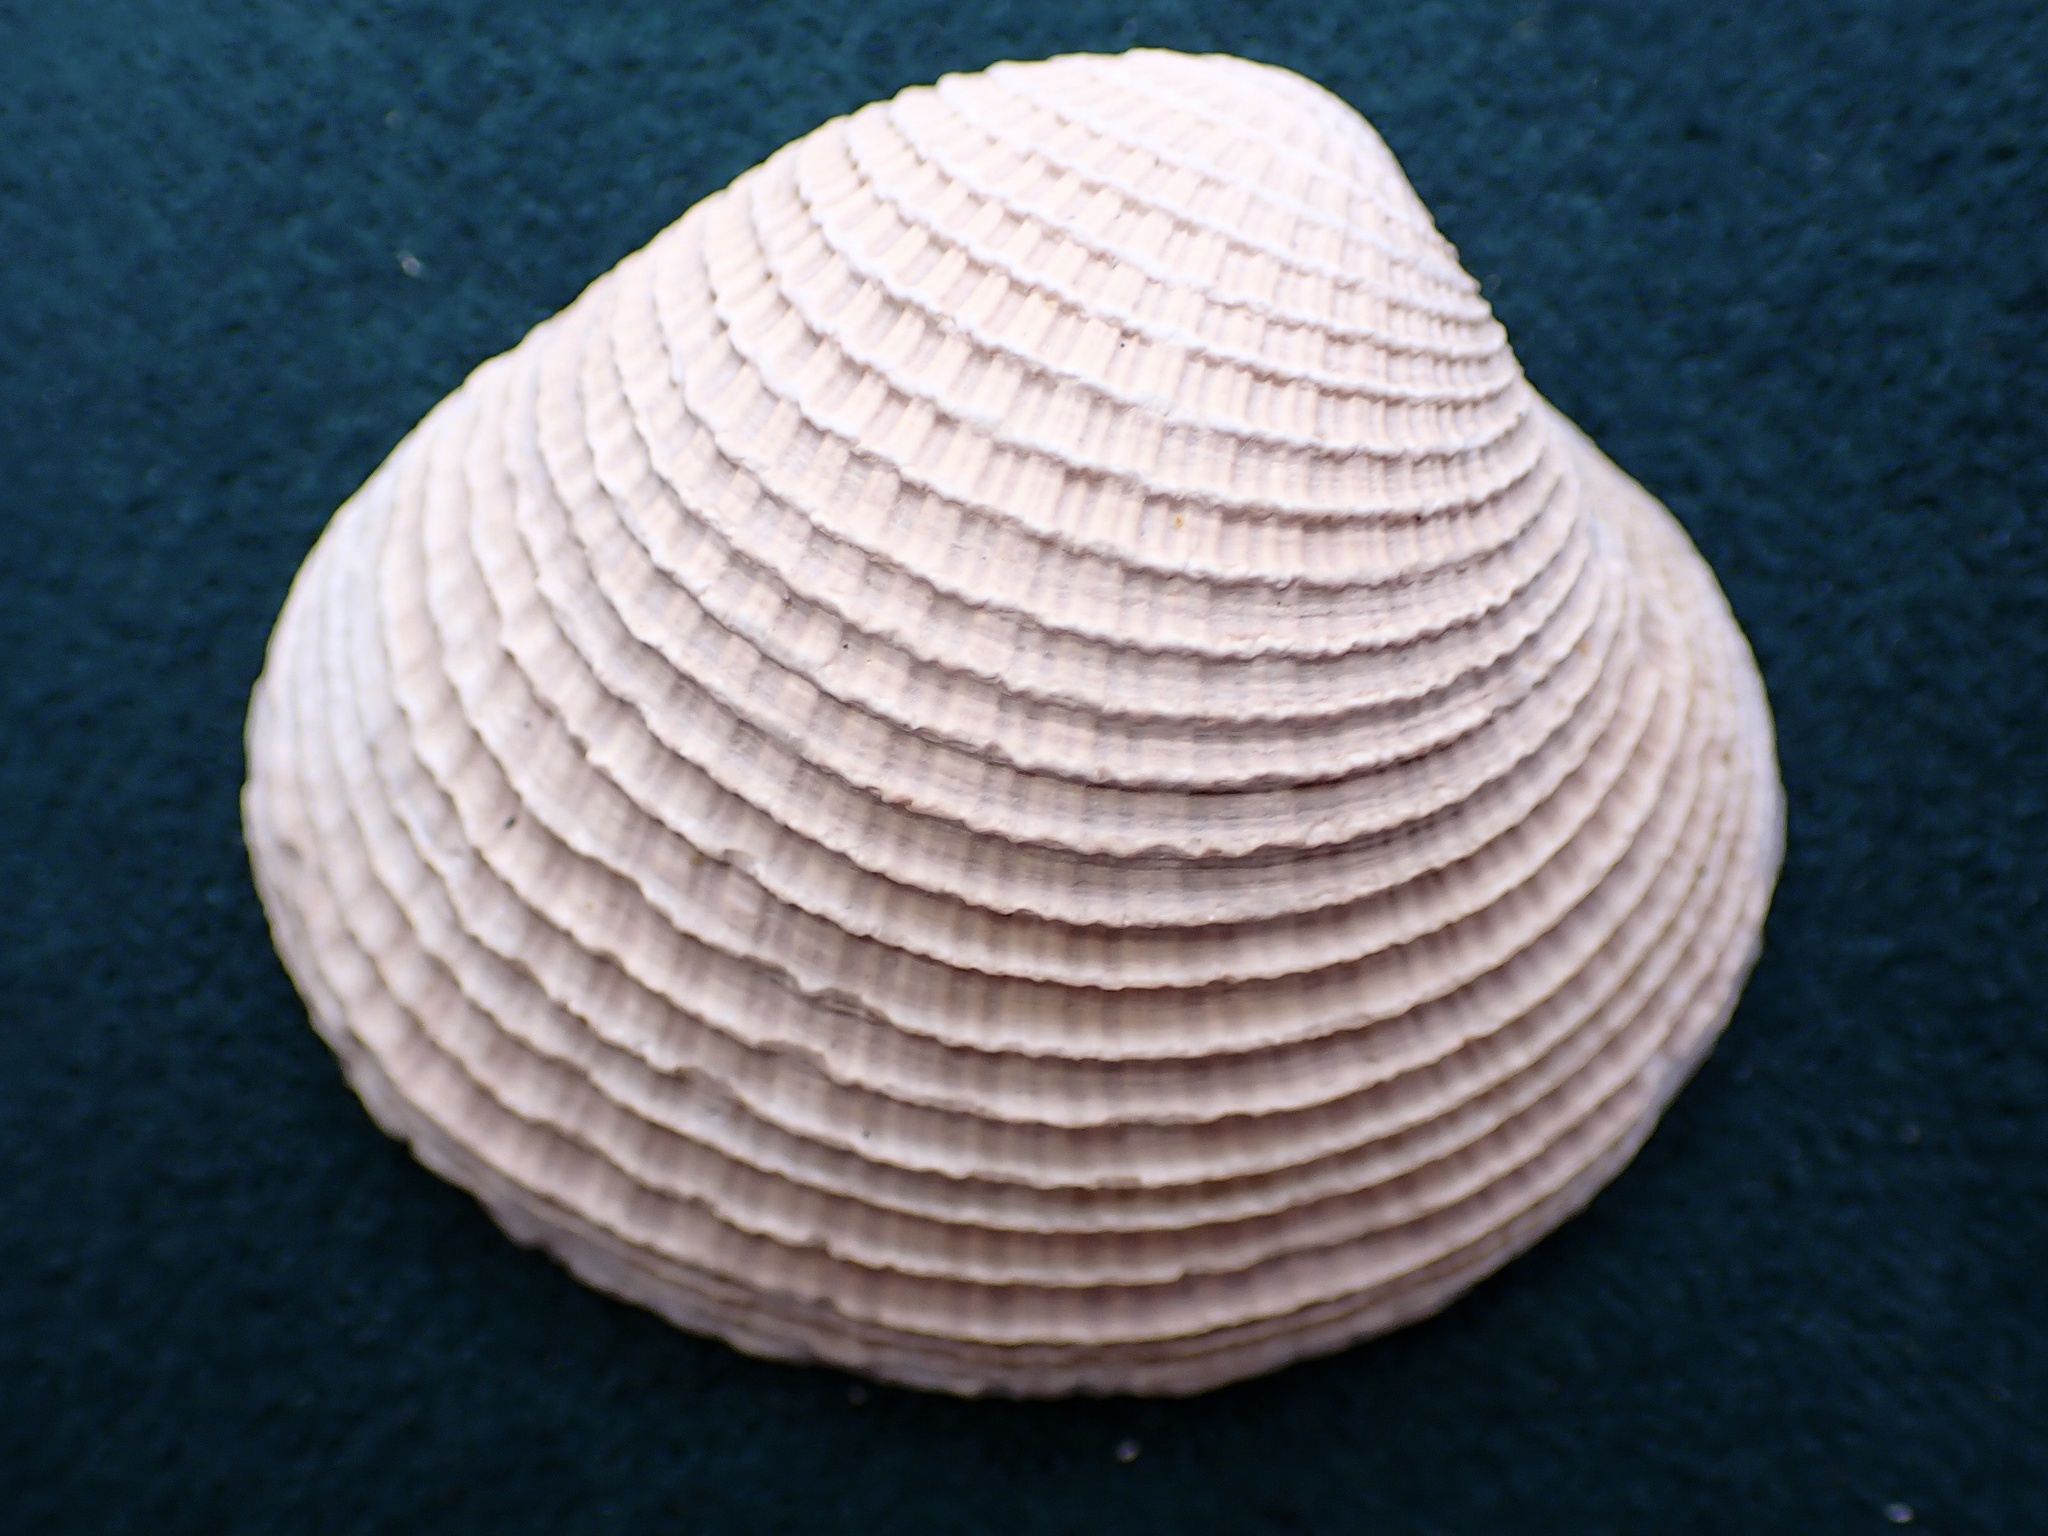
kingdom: Animalia
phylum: Mollusca
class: Bivalvia
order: Venerida
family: Veneridae
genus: Chione
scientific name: Chione undatella
